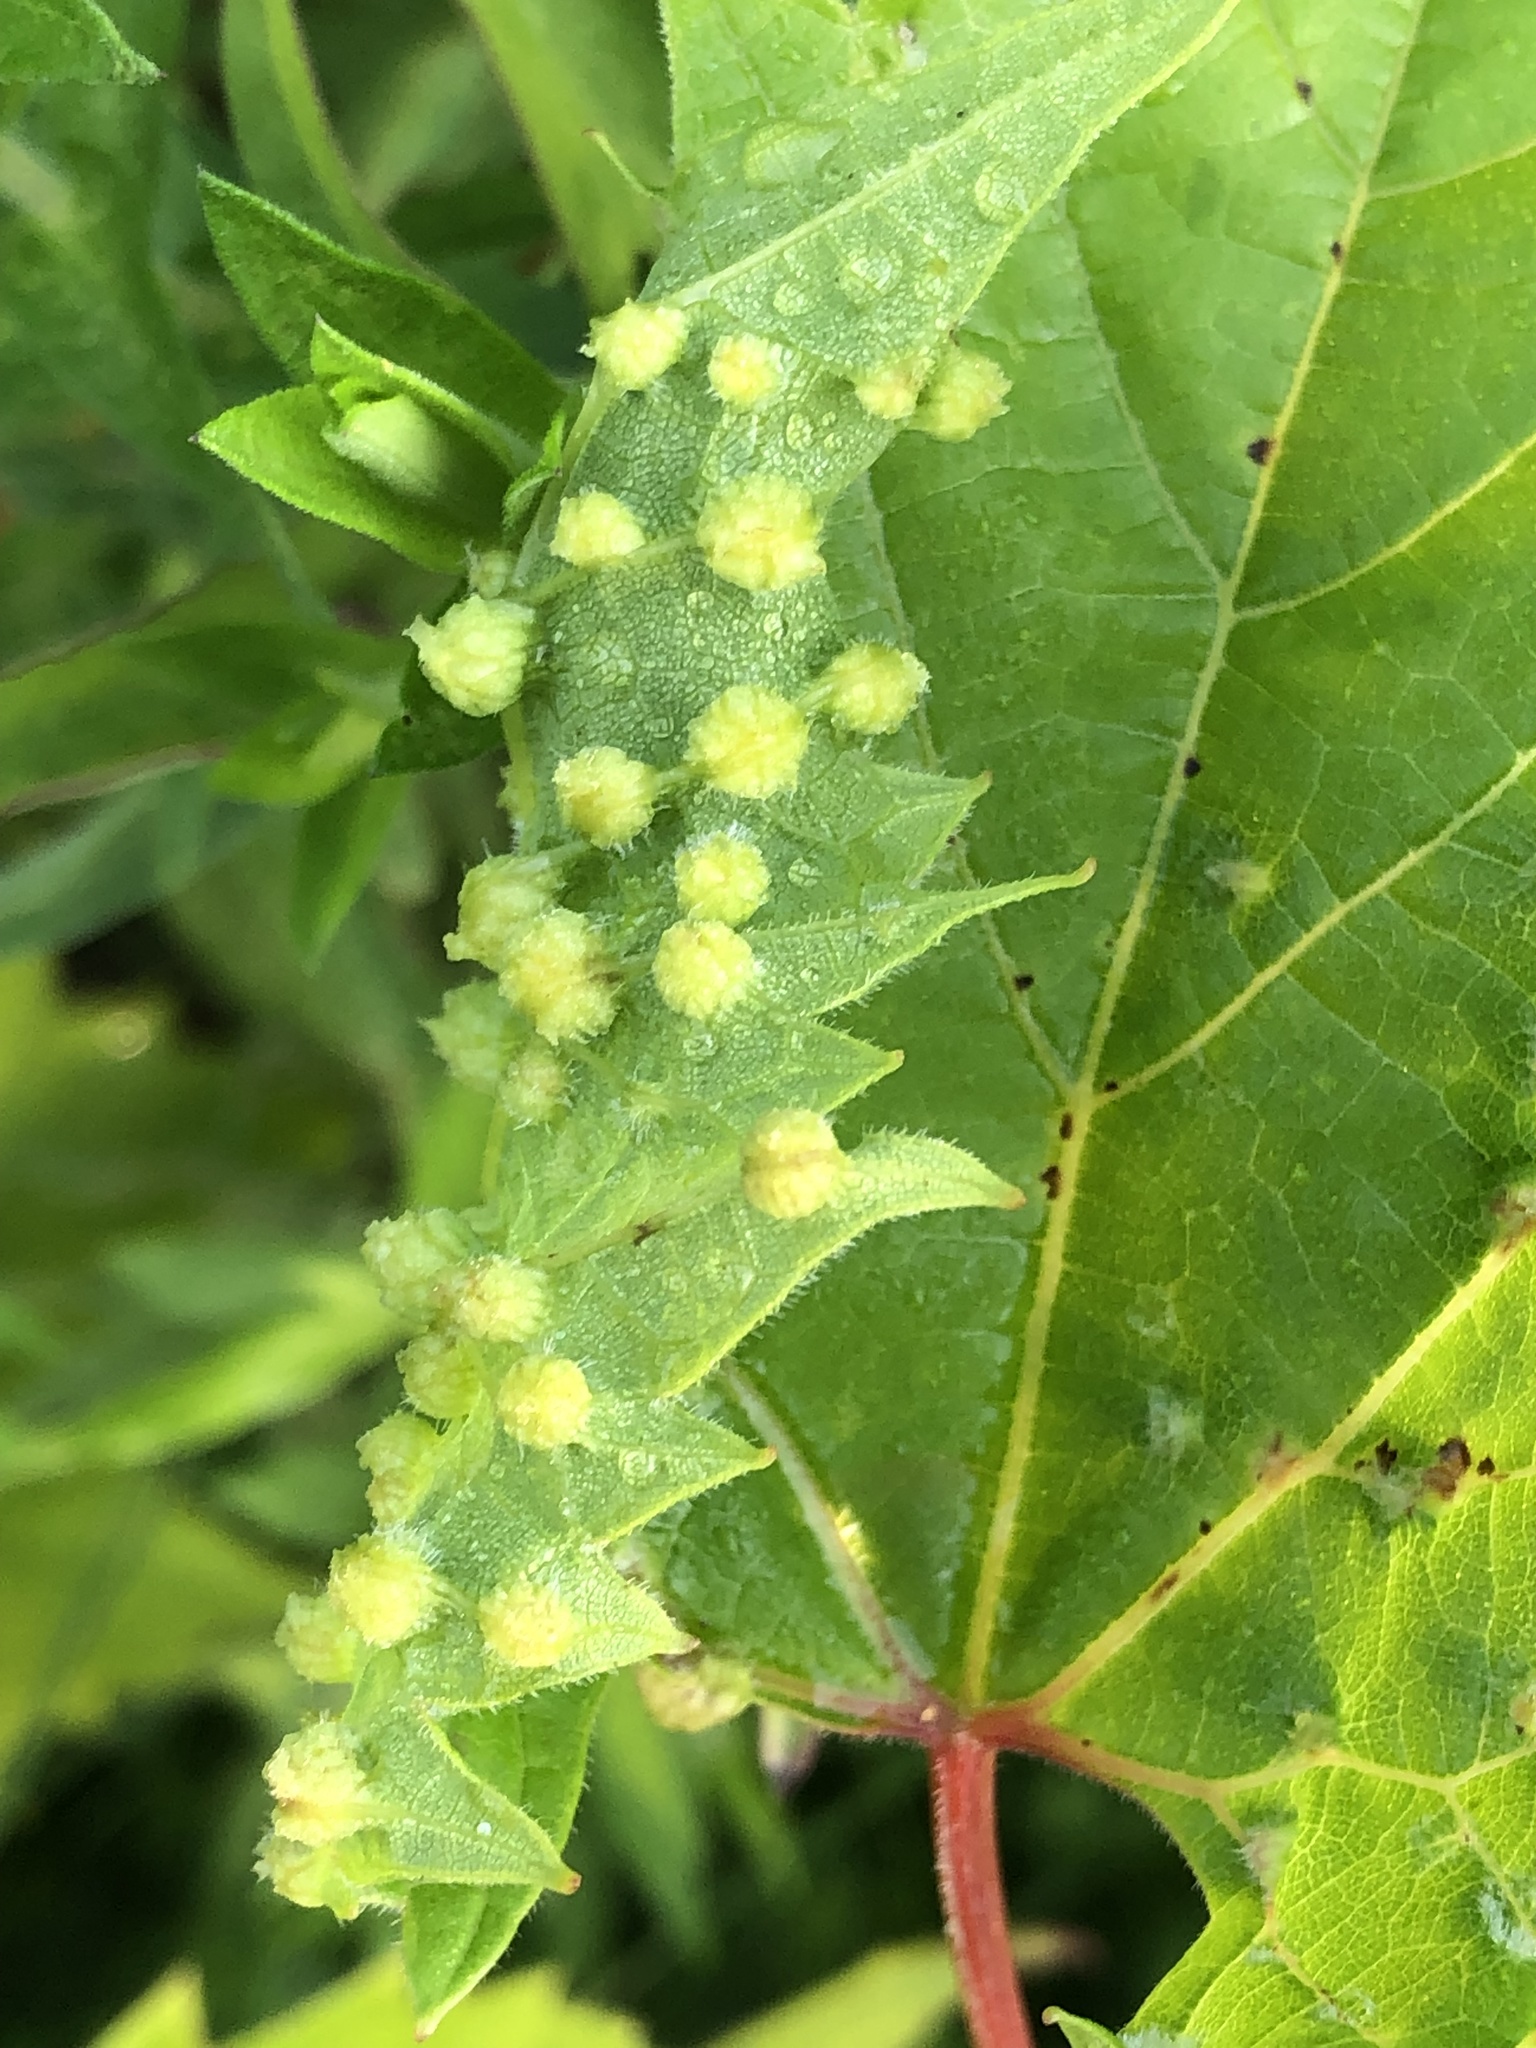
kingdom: Animalia
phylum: Arthropoda
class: Insecta
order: Hemiptera
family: Phylloxeridae
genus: Daktulosphaira
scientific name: Daktulosphaira vitifoliae
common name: Grape phylloxera
